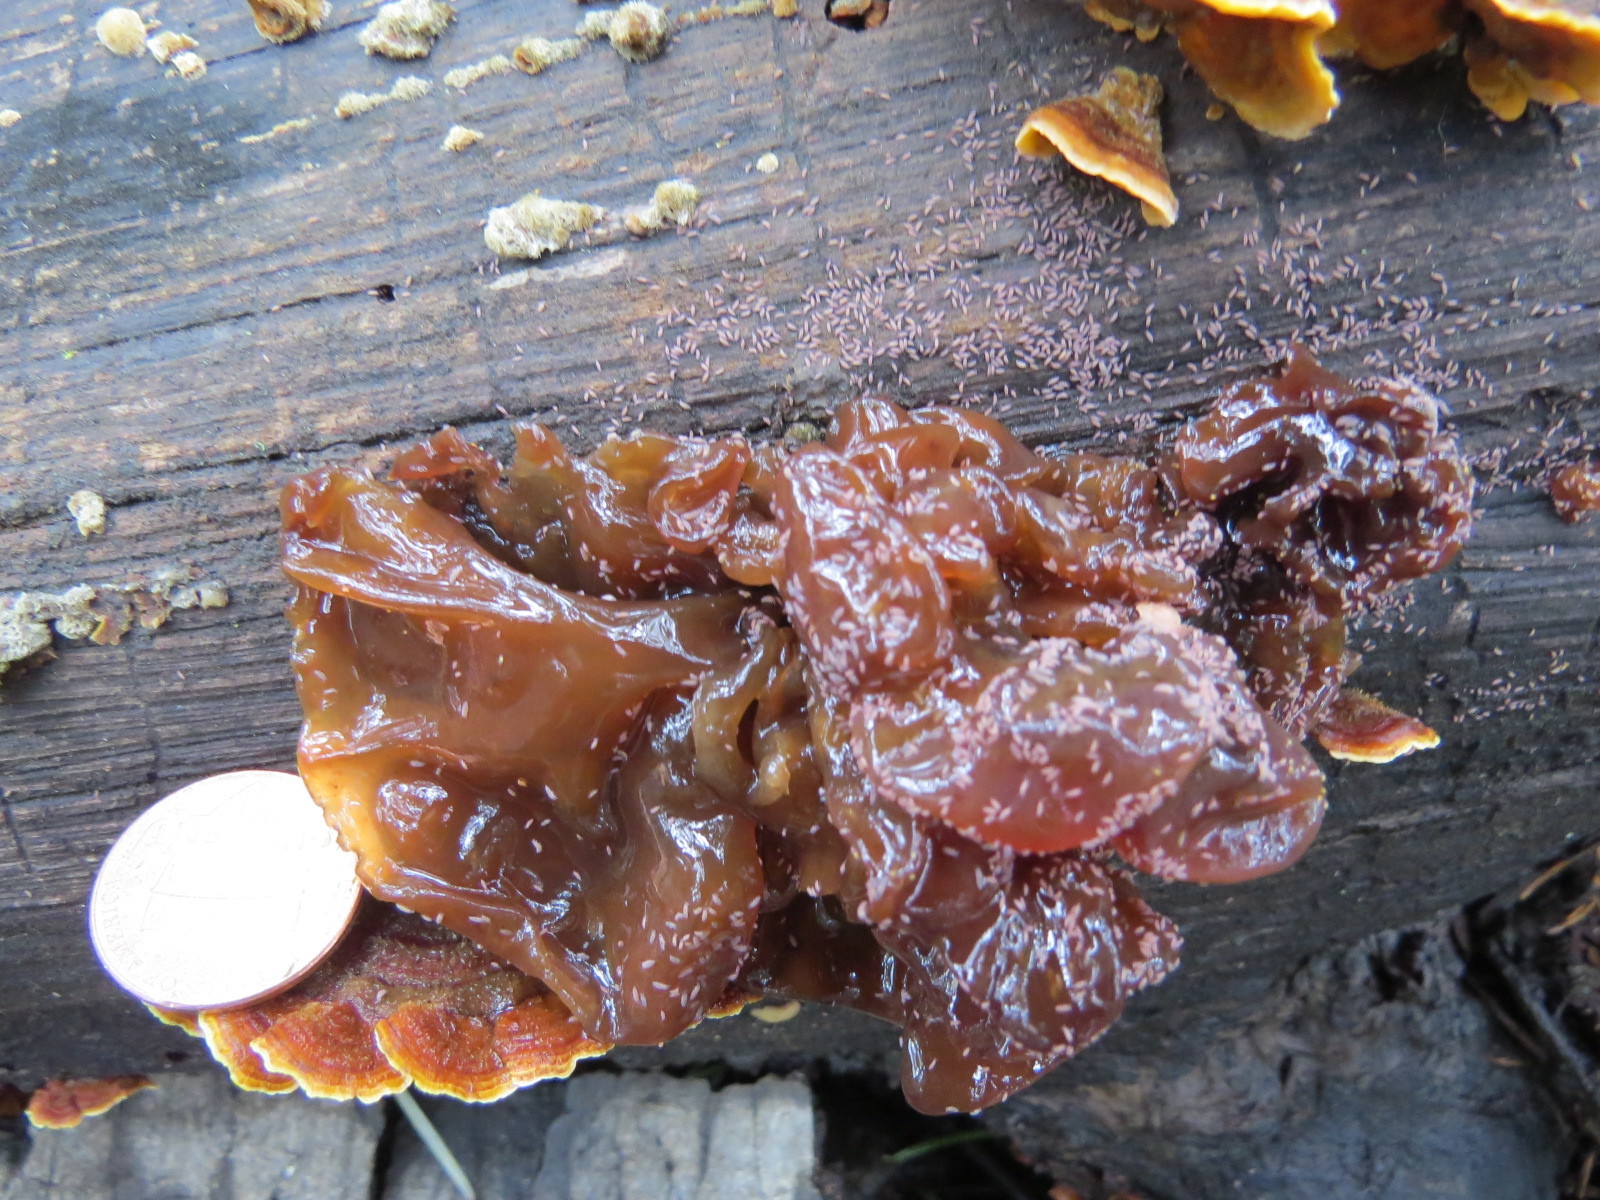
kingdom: Fungi
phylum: Basidiomycota
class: Tremellomycetes
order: Tremellales
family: Tremellaceae
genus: Phaeotremella
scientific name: Phaeotremella frondosa
